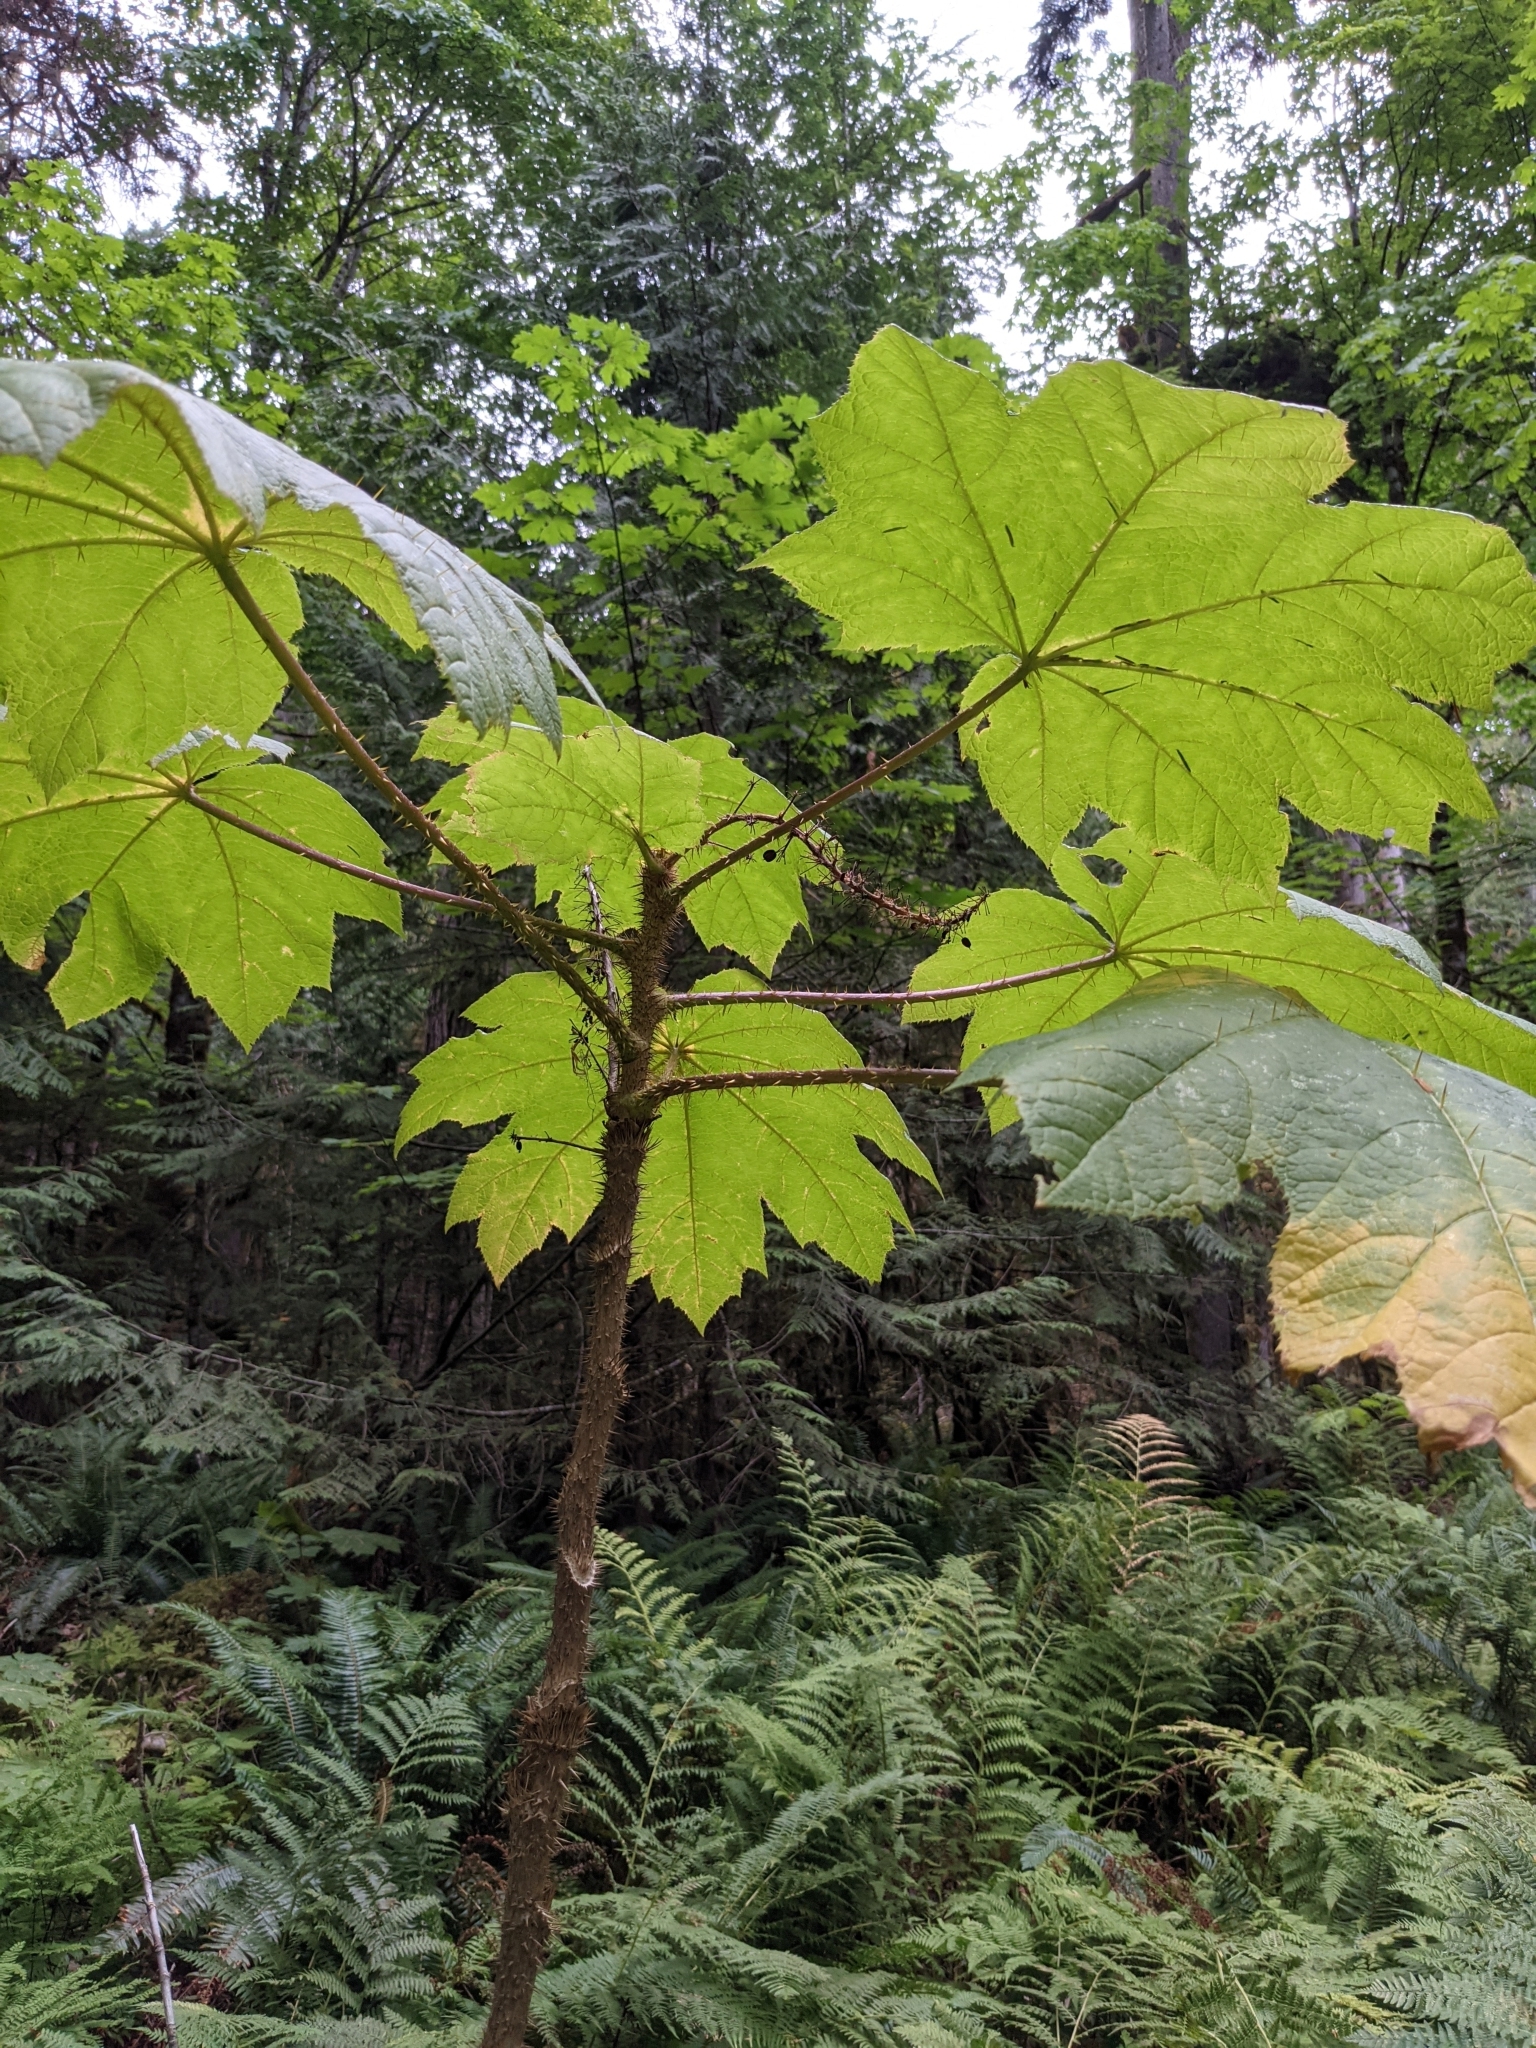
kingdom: Plantae
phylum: Tracheophyta
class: Magnoliopsida
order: Apiales
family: Araliaceae
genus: Oplopanax
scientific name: Oplopanax horridus
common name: Devil's walking-stick
